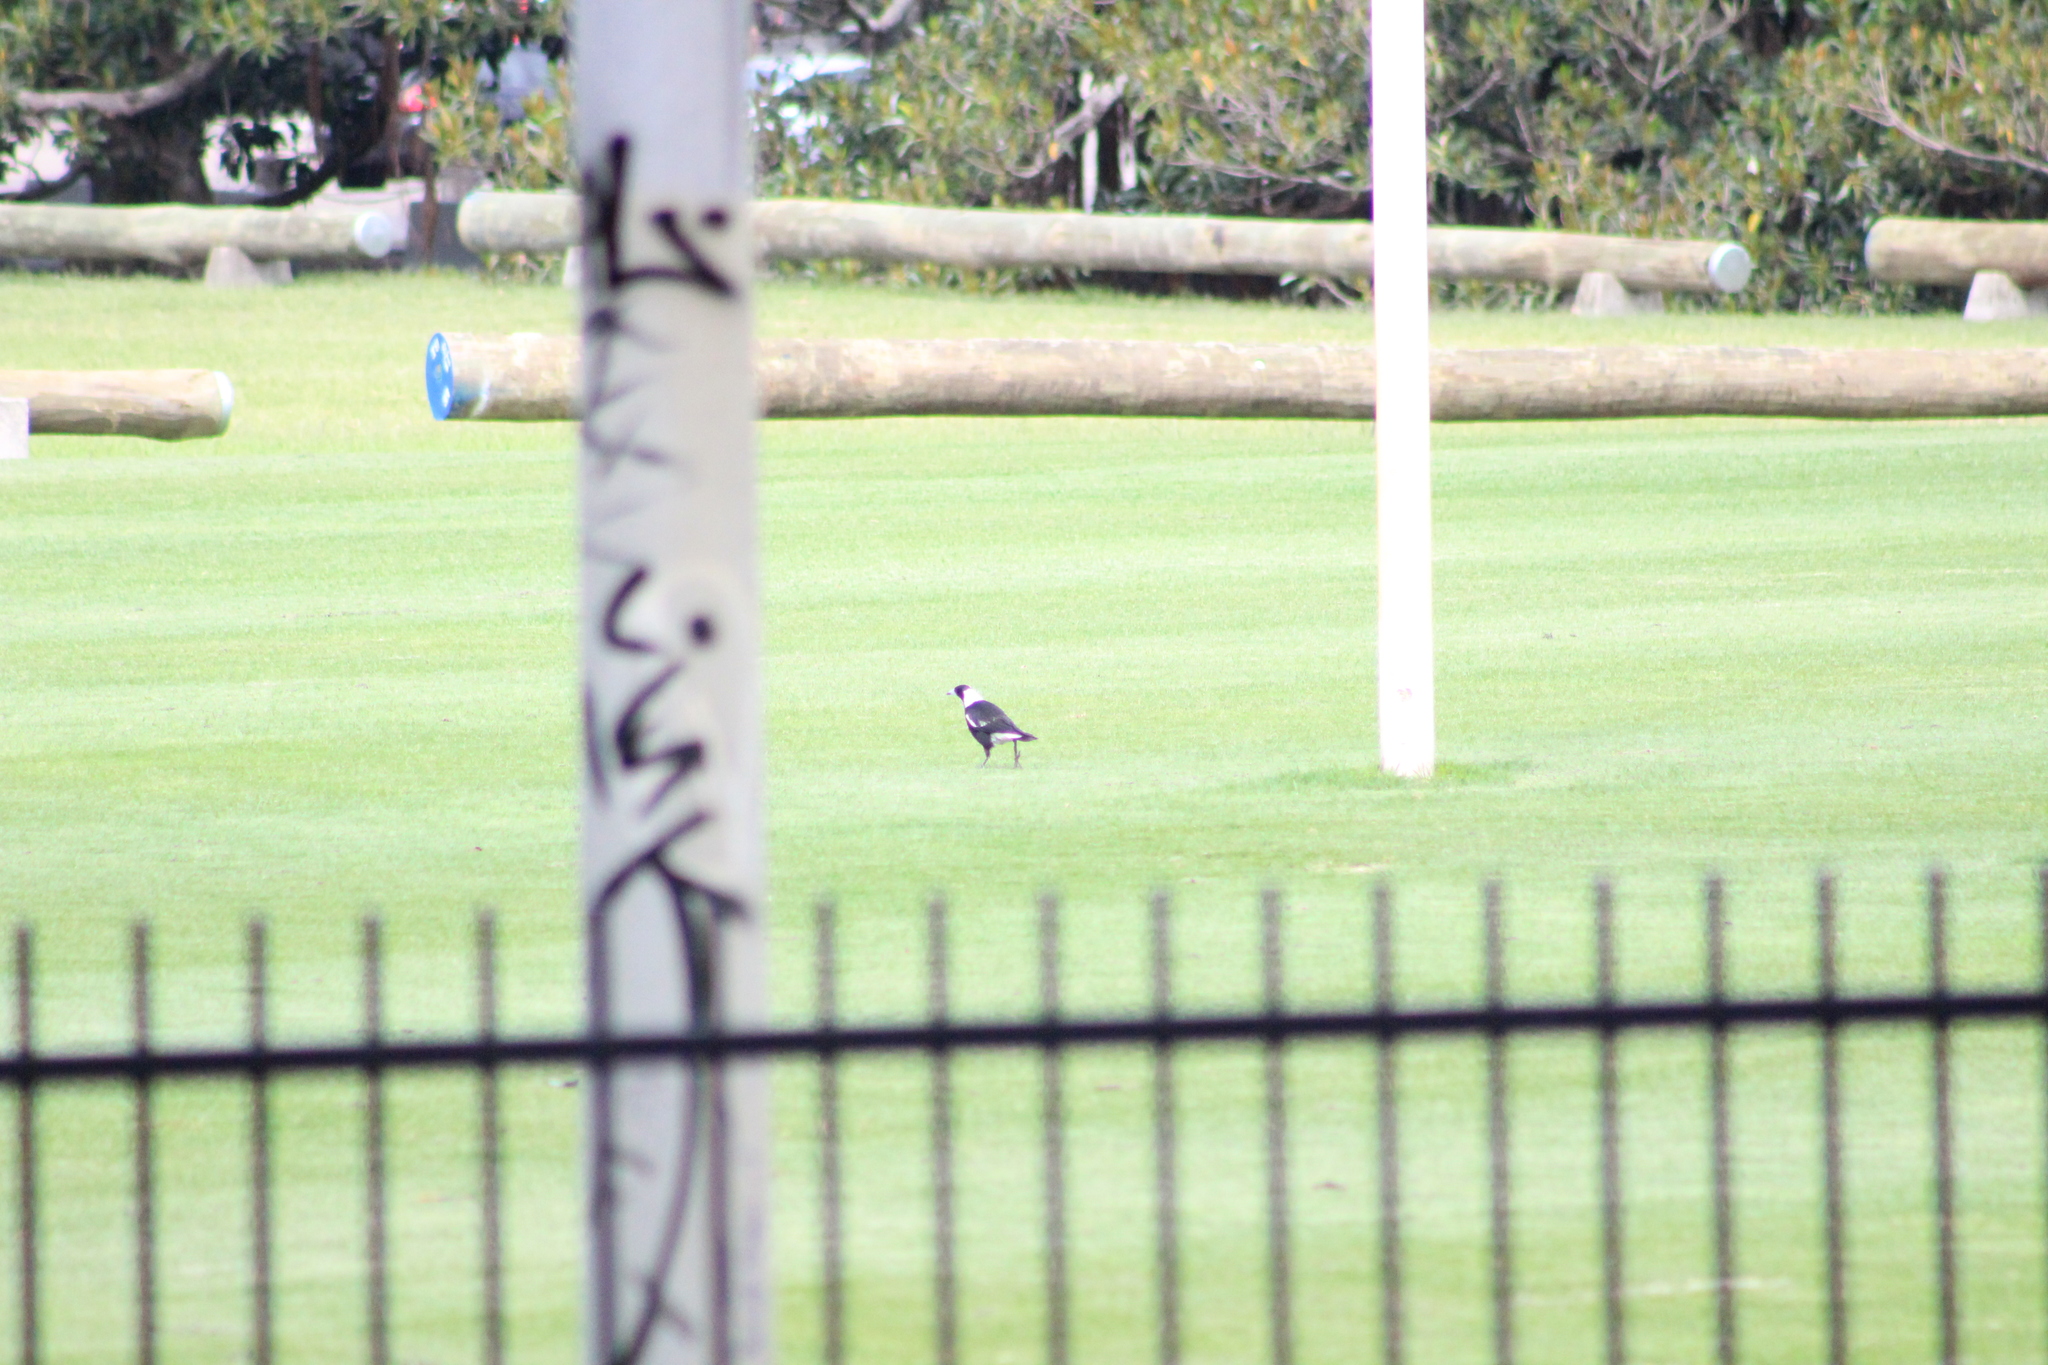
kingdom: Animalia
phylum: Chordata
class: Aves
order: Passeriformes
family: Cracticidae
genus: Gymnorhina
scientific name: Gymnorhina tibicen
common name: Australian magpie
